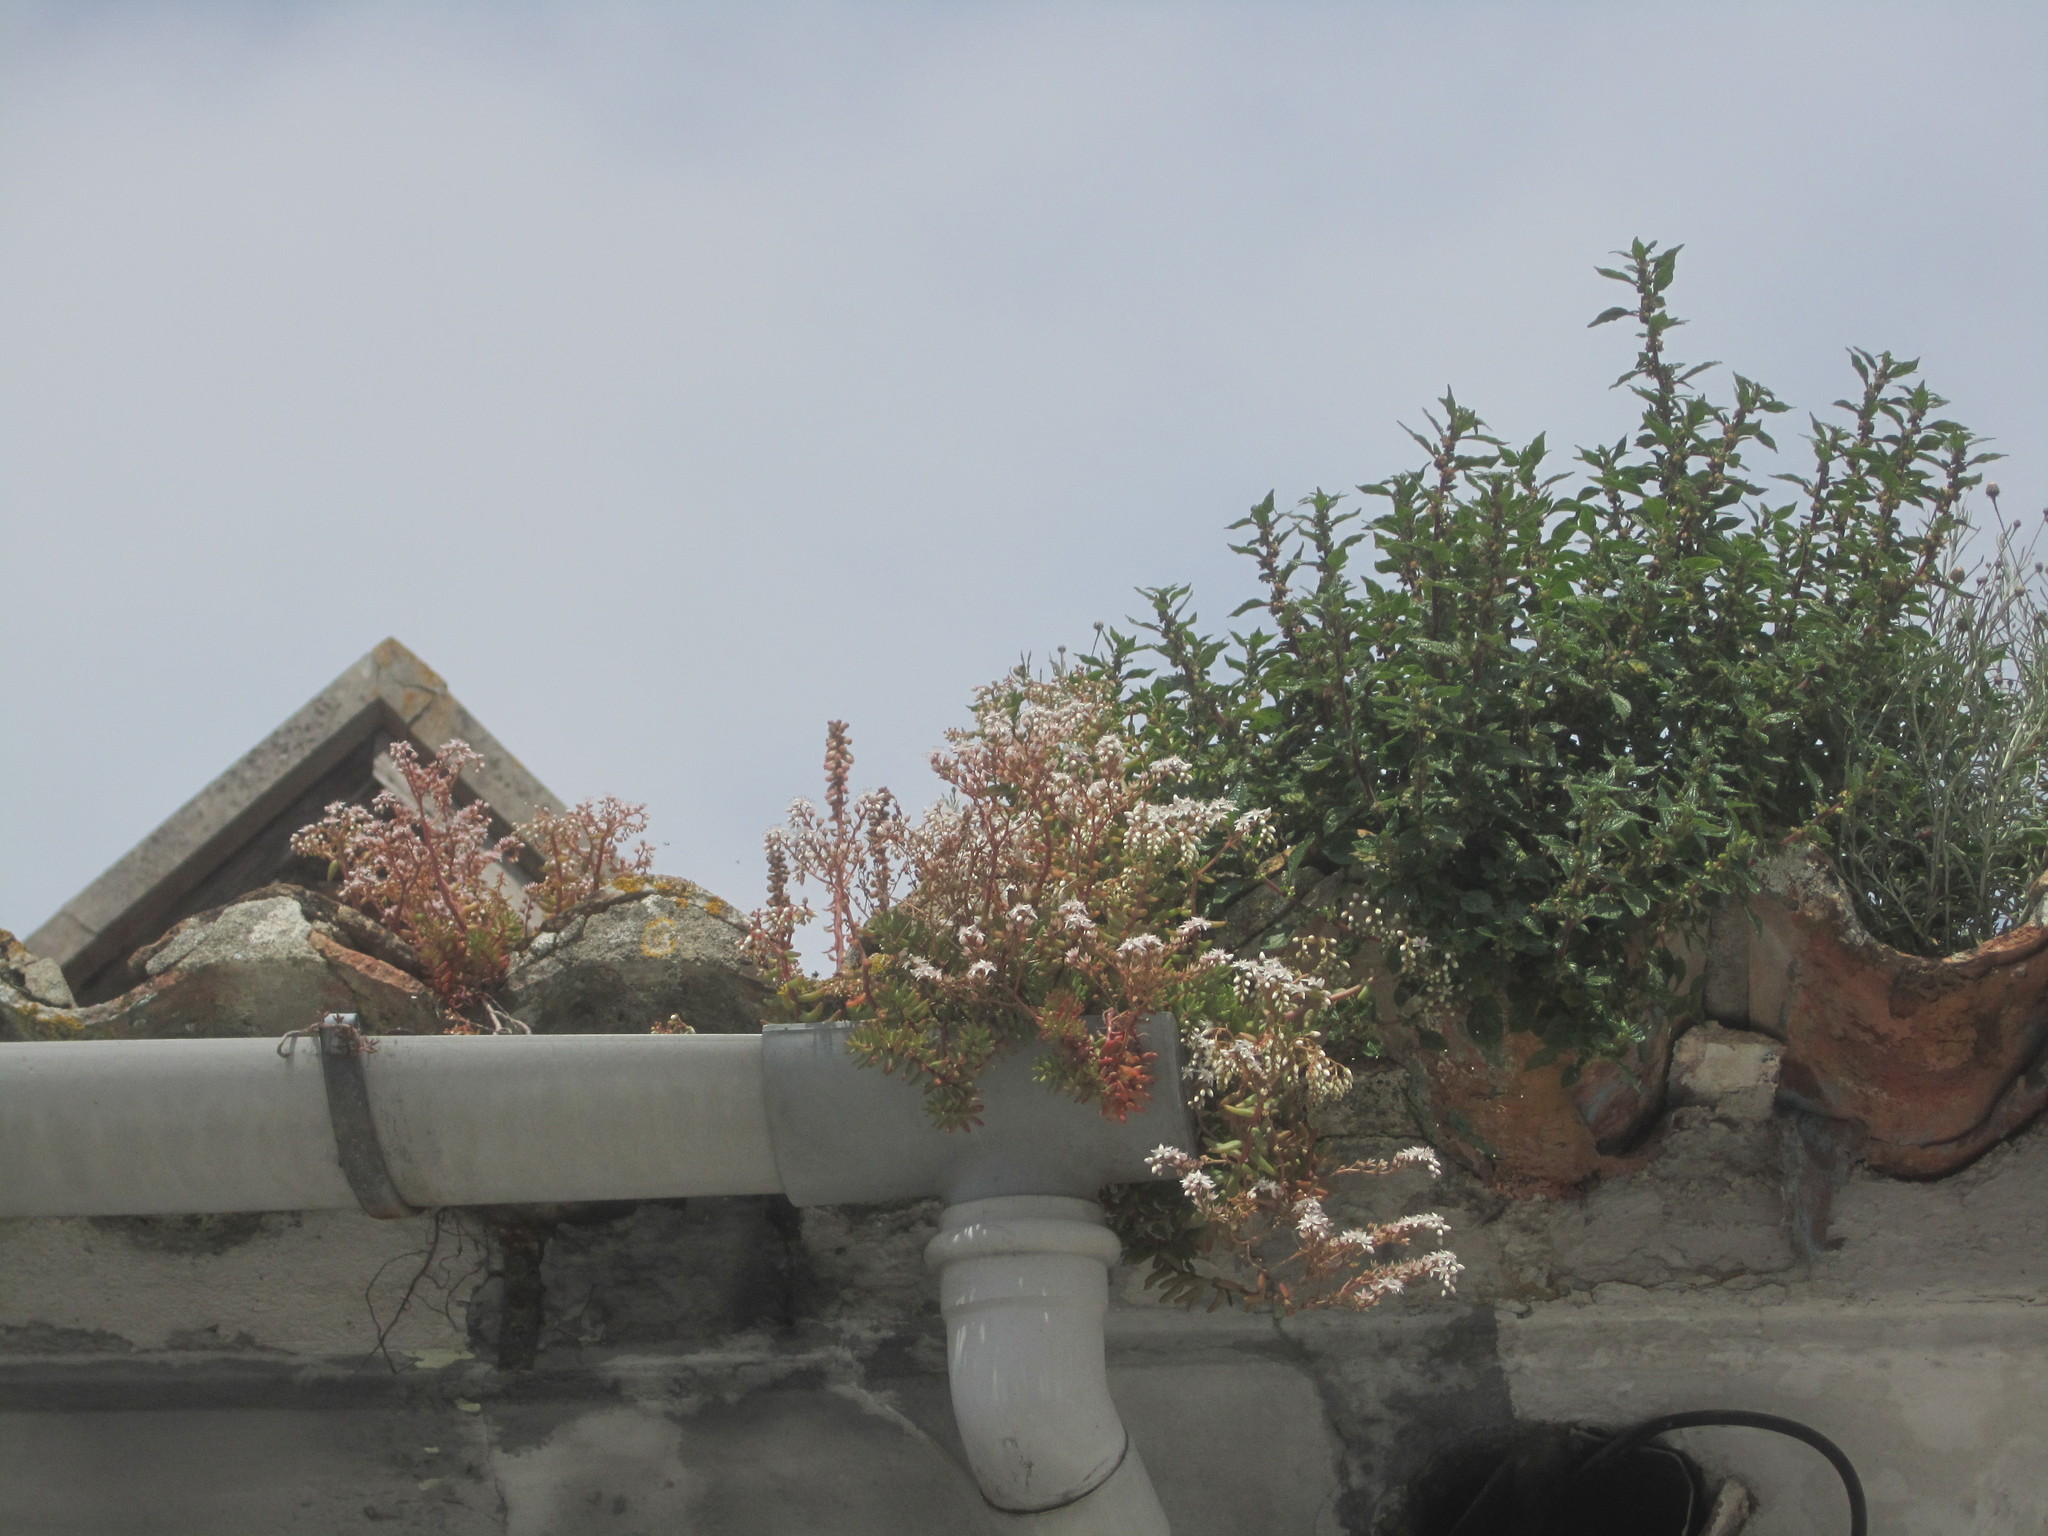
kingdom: Plantae
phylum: Tracheophyta
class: Magnoliopsida
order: Saxifragales
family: Crassulaceae
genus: Sedum
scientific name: Sedum album
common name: White stonecrop
